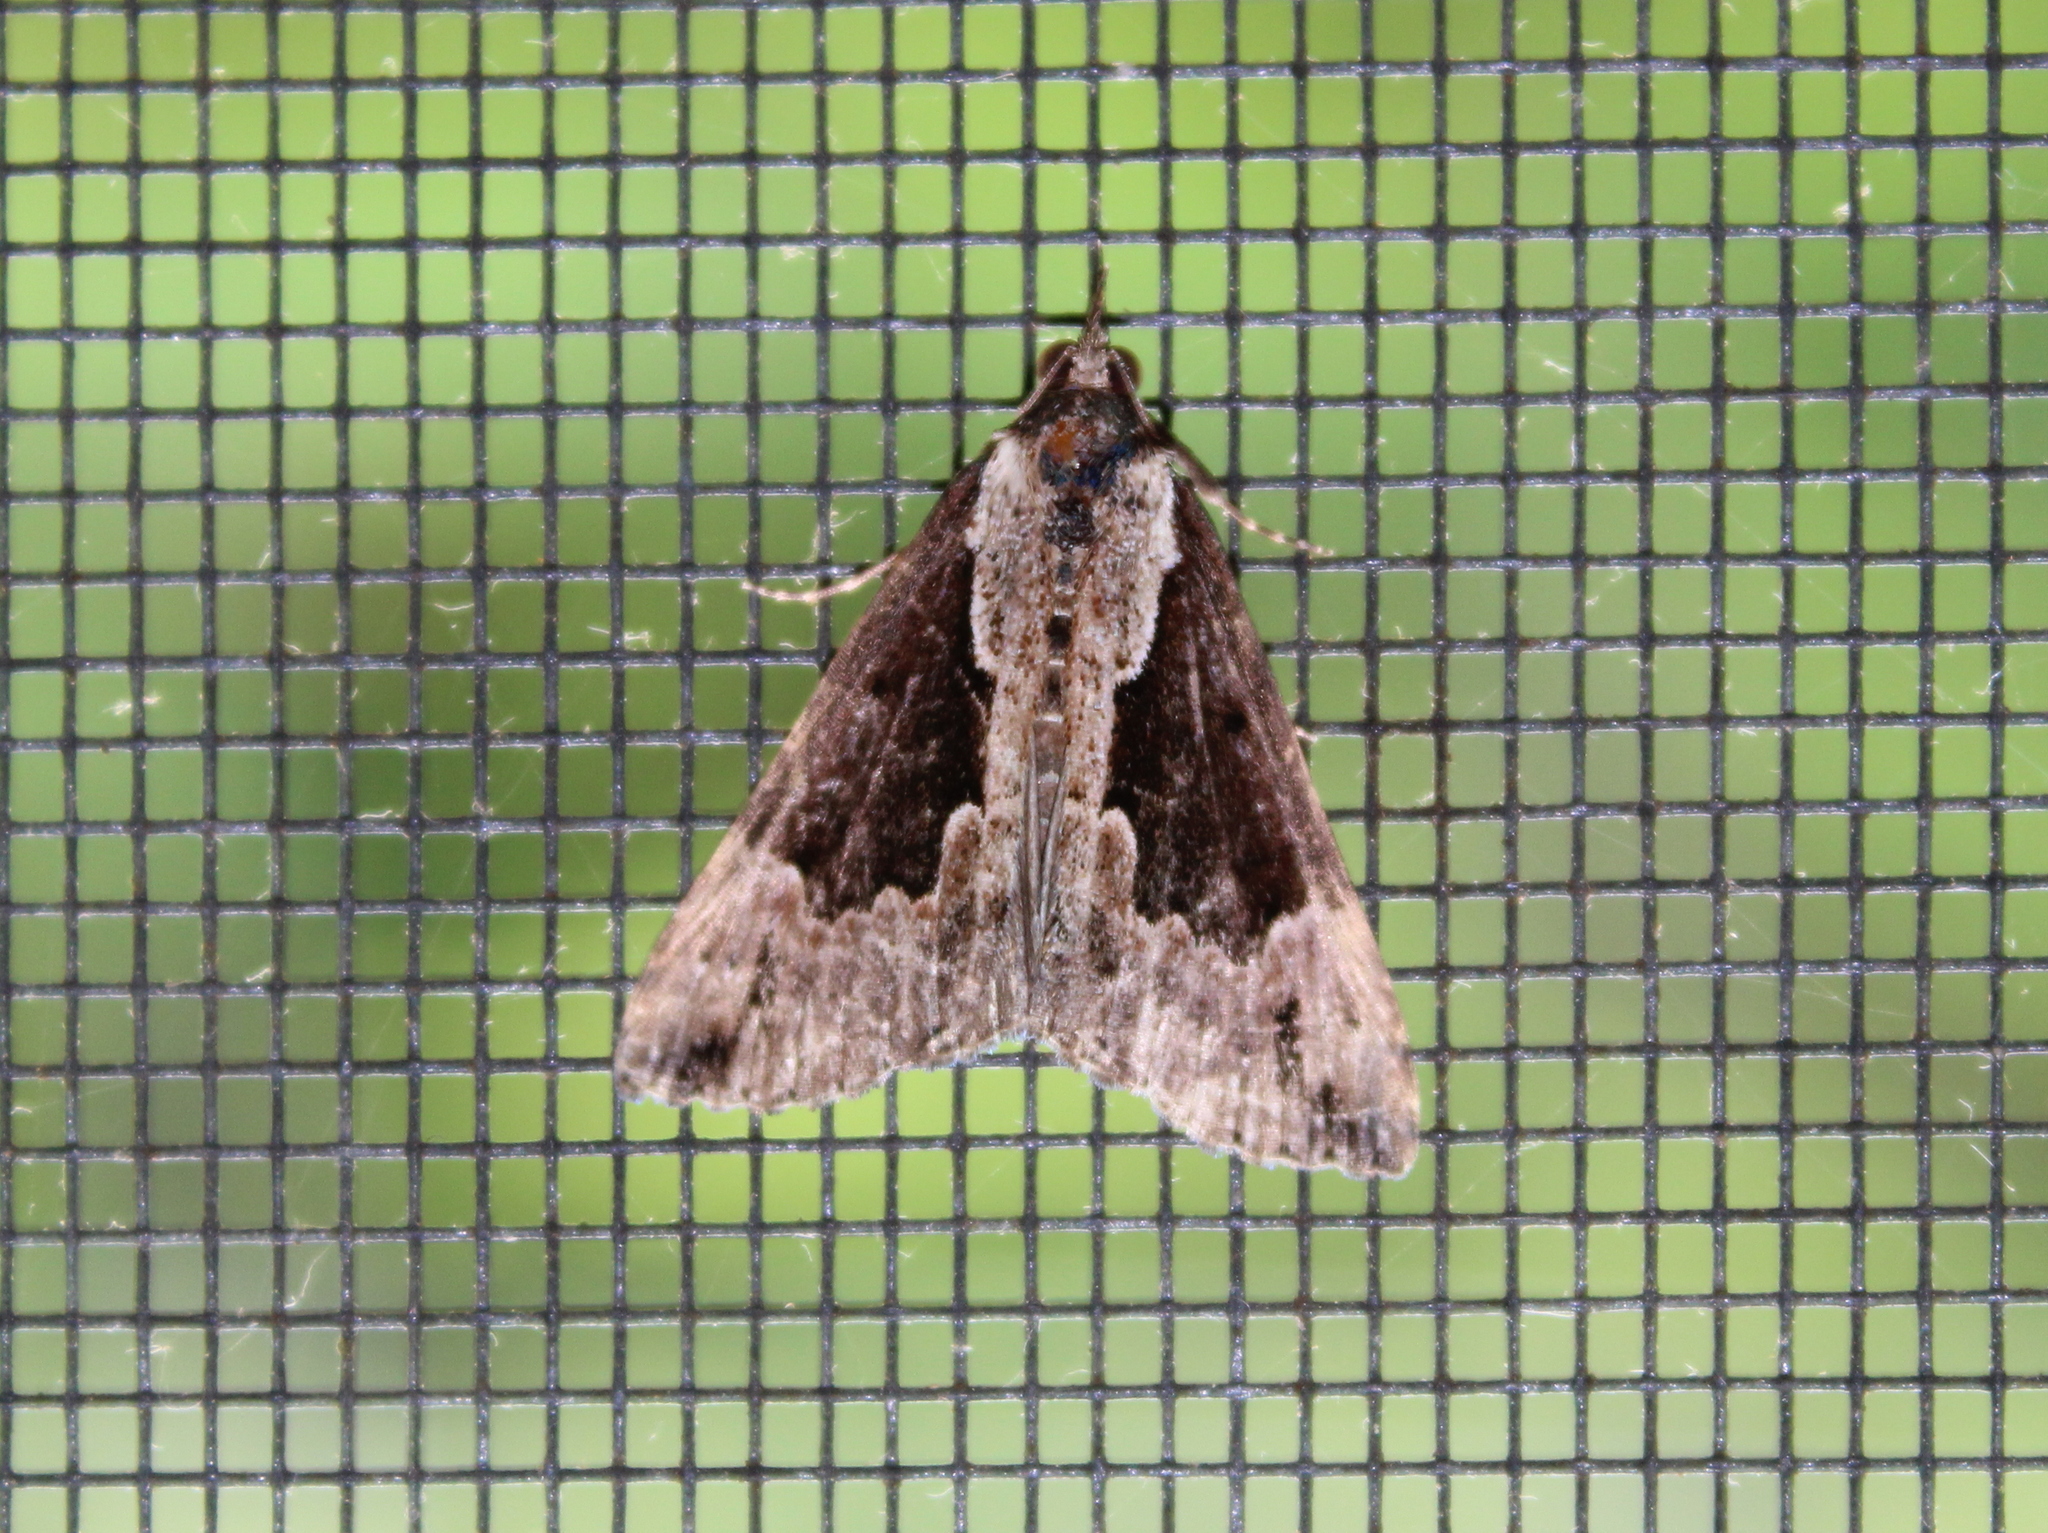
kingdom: Animalia
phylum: Arthropoda
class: Insecta
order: Lepidoptera
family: Erebidae
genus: Hypena
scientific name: Hypena baltimoralis
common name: Baltimore snout
